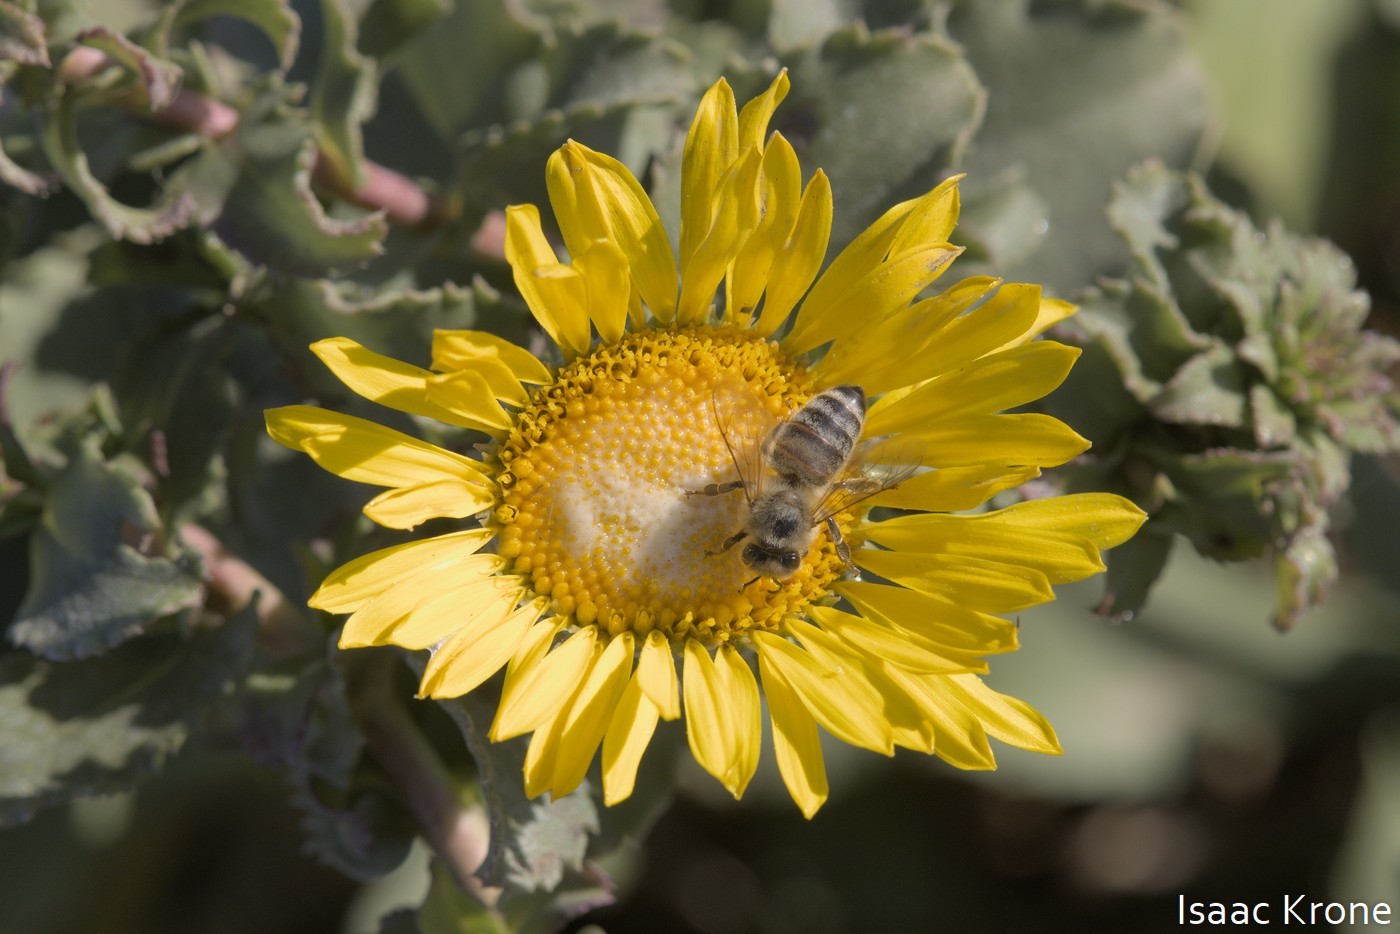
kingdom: Animalia
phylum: Arthropoda
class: Insecta
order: Hymenoptera
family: Apidae
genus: Apis
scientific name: Apis mellifera
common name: Honey bee
